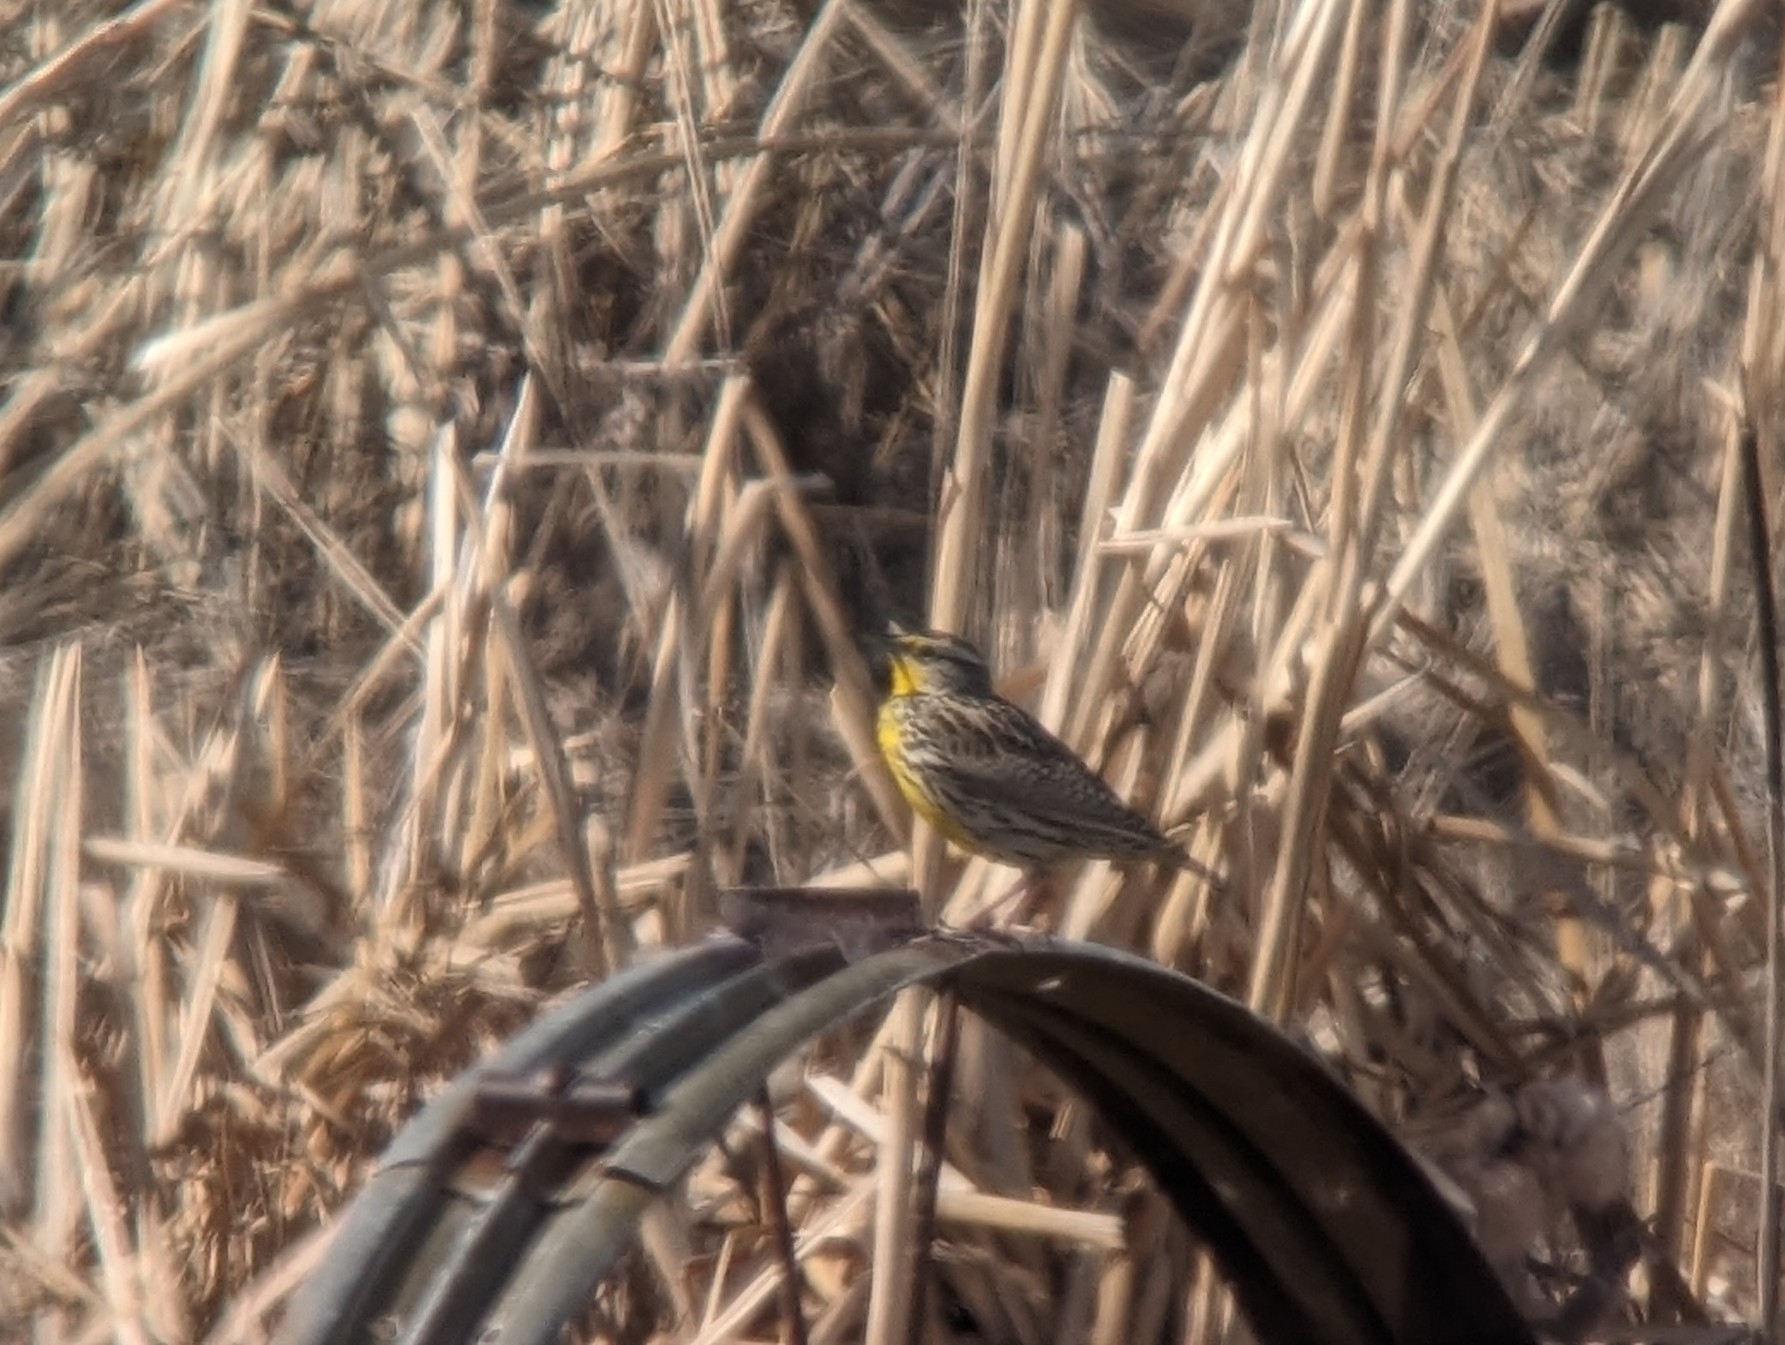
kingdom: Animalia
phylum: Chordata
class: Aves
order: Passeriformes
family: Icteridae
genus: Sturnella
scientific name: Sturnella neglecta
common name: Western meadowlark
